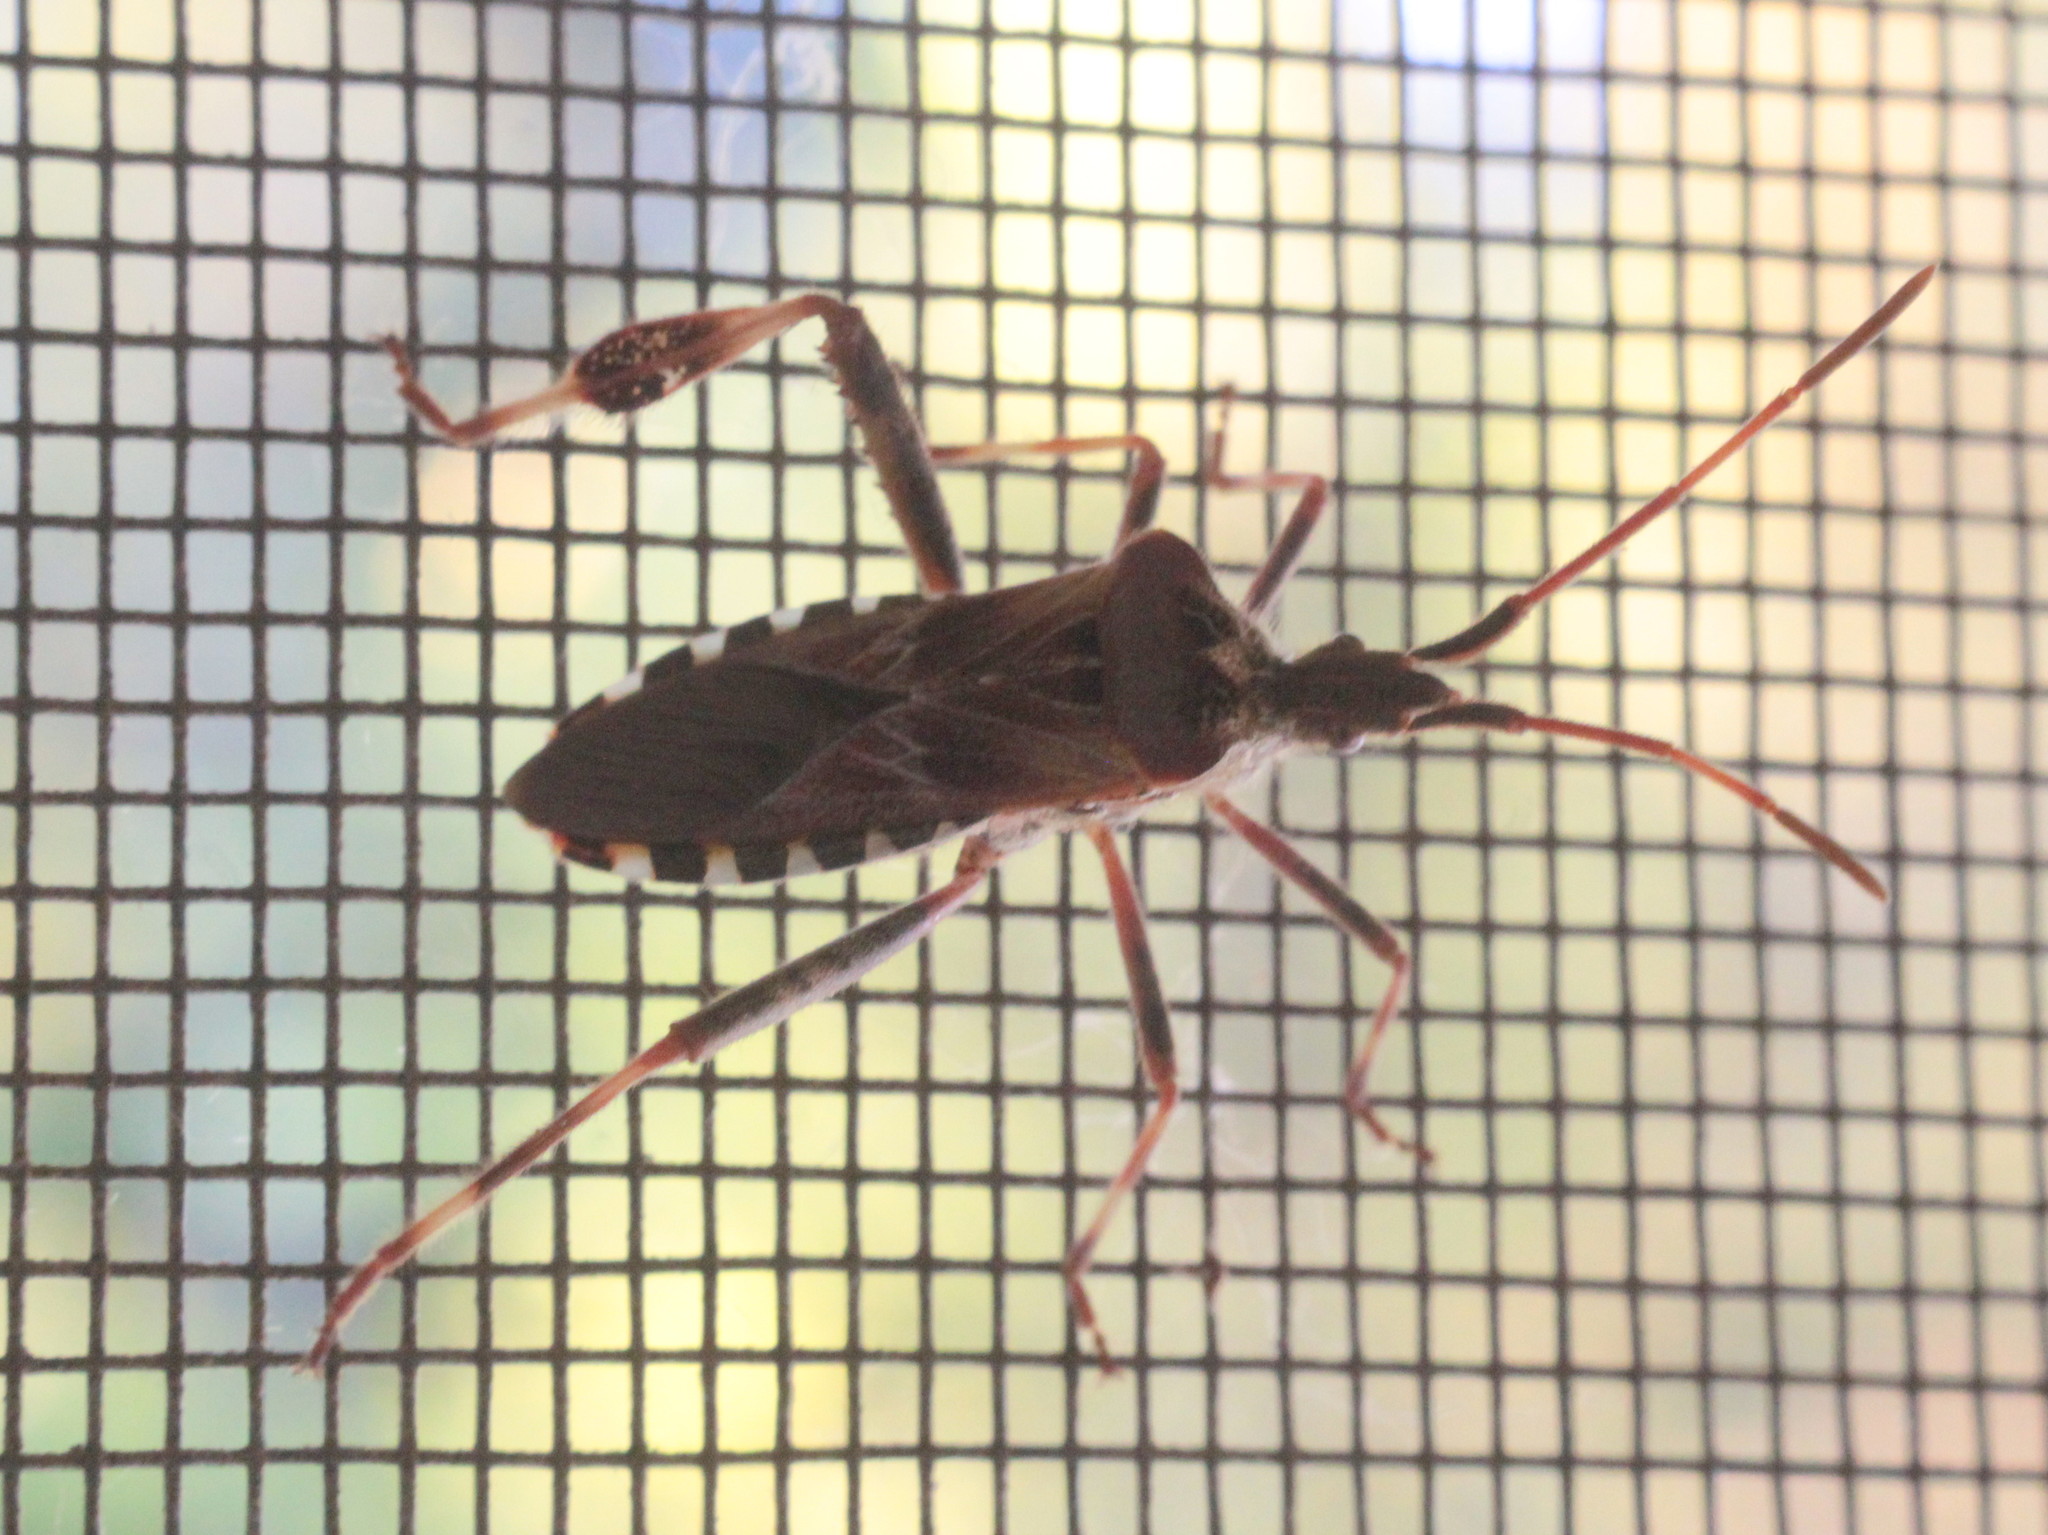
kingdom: Animalia
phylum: Arthropoda
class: Insecta
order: Hemiptera
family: Coreidae
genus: Leptoglossus
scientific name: Leptoglossus occidentalis
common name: Western conifer-seed bug
